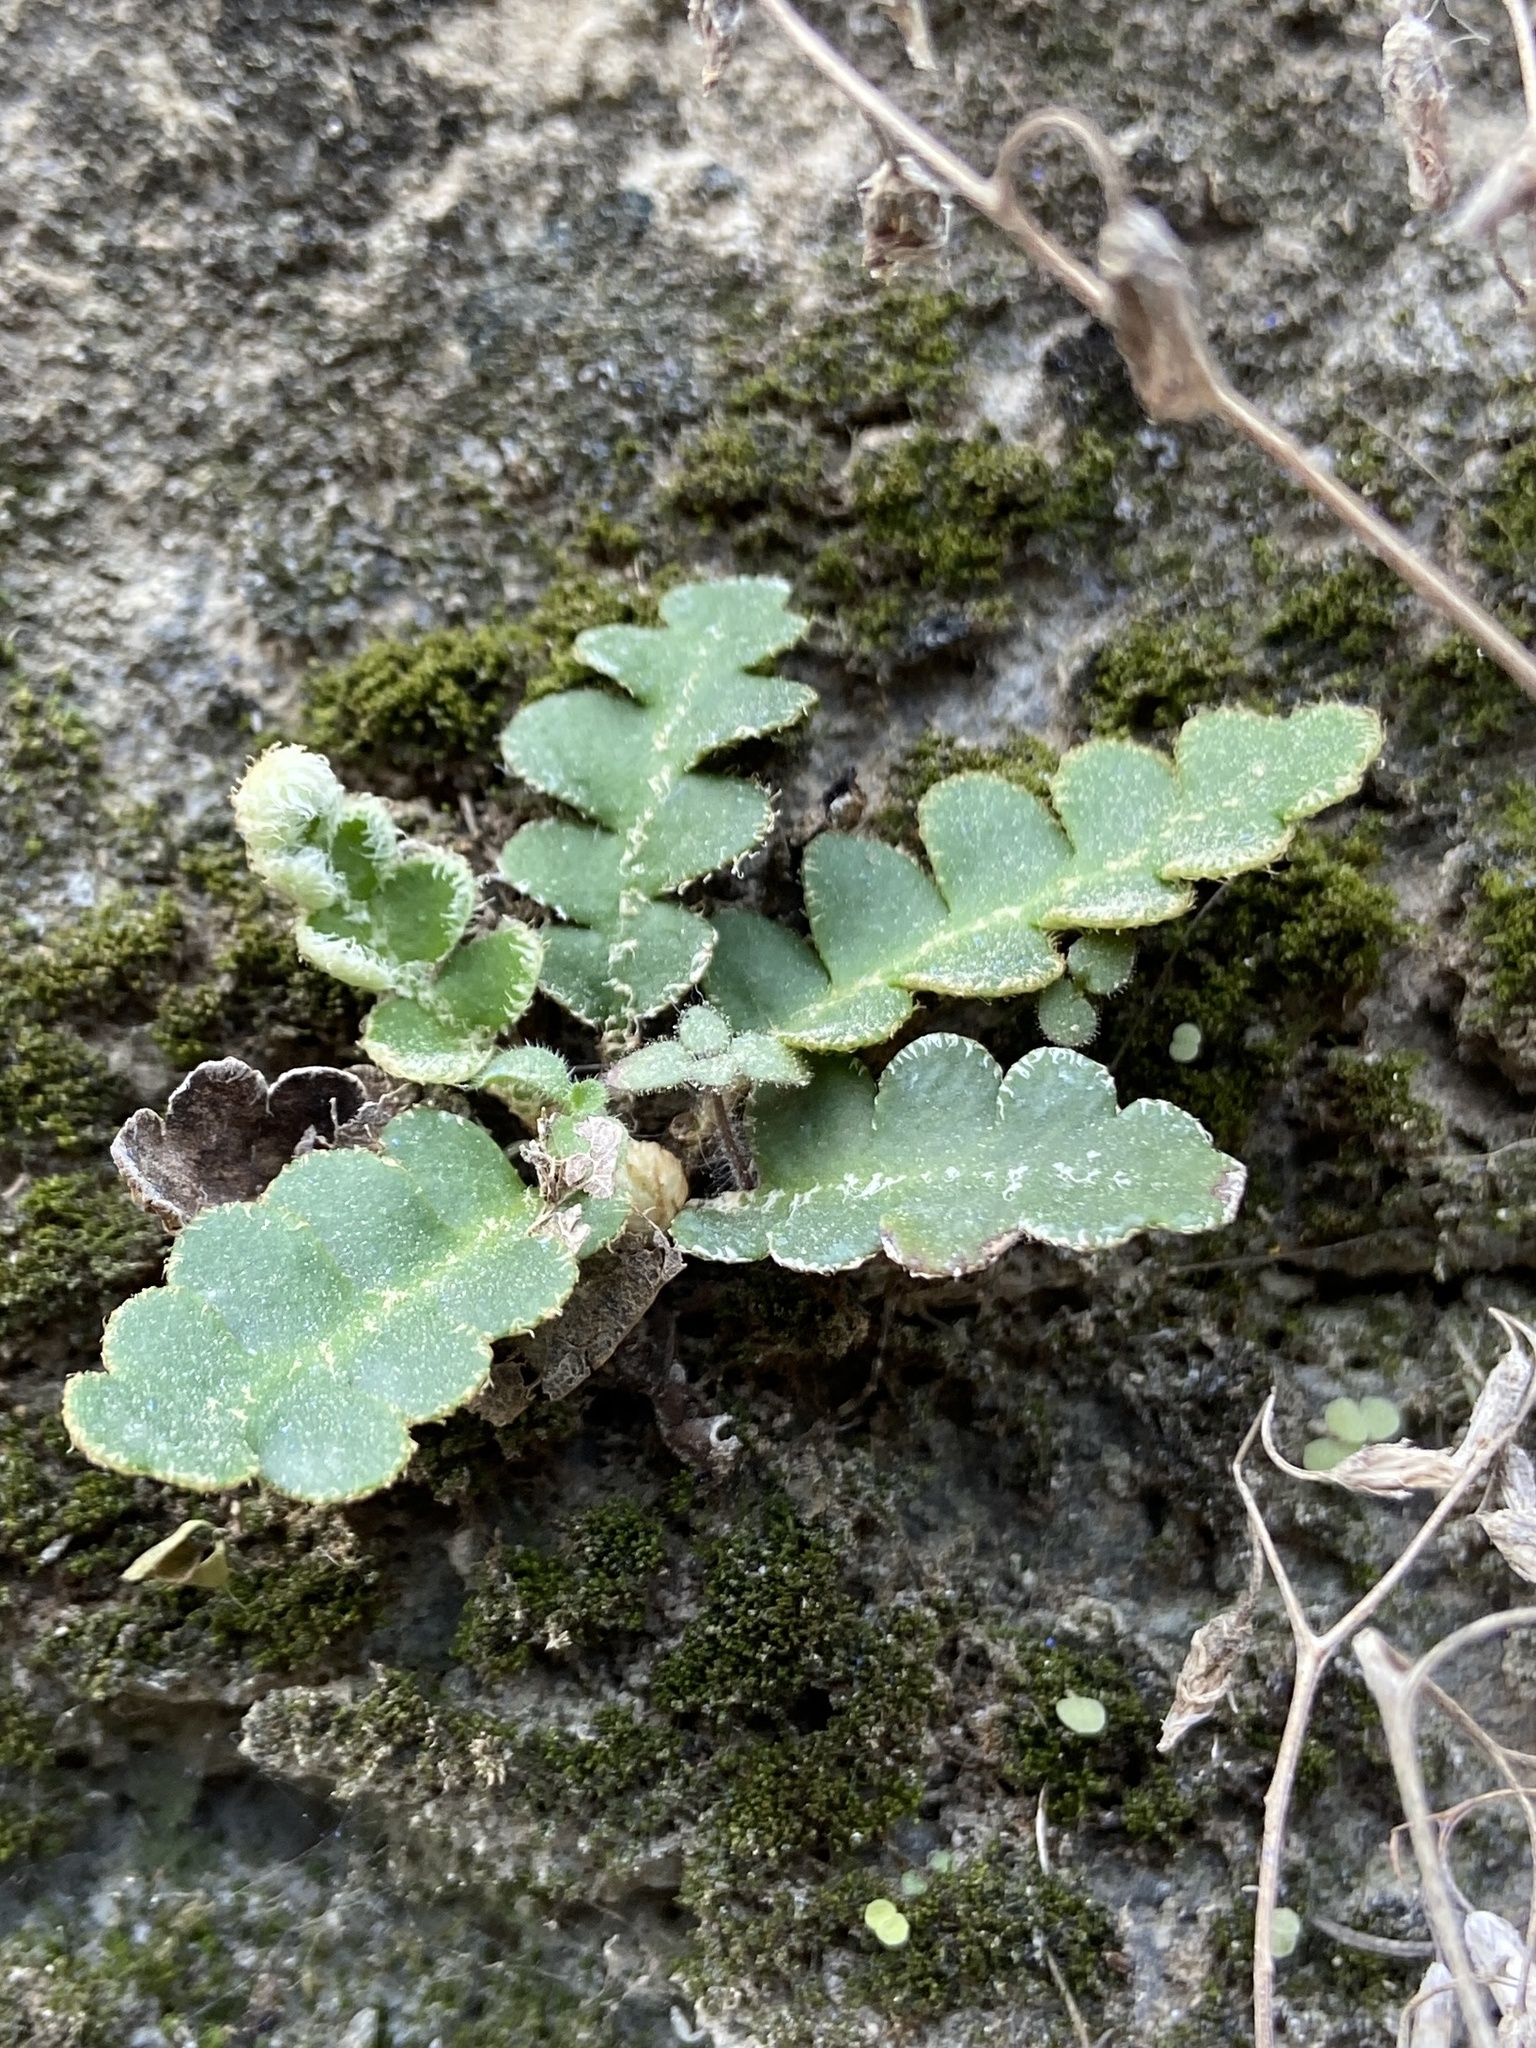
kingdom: Plantae
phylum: Tracheophyta
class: Polypodiopsida
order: Polypodiales
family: Aspleniaceae
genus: Asplenium
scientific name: Asplenium ceterach
